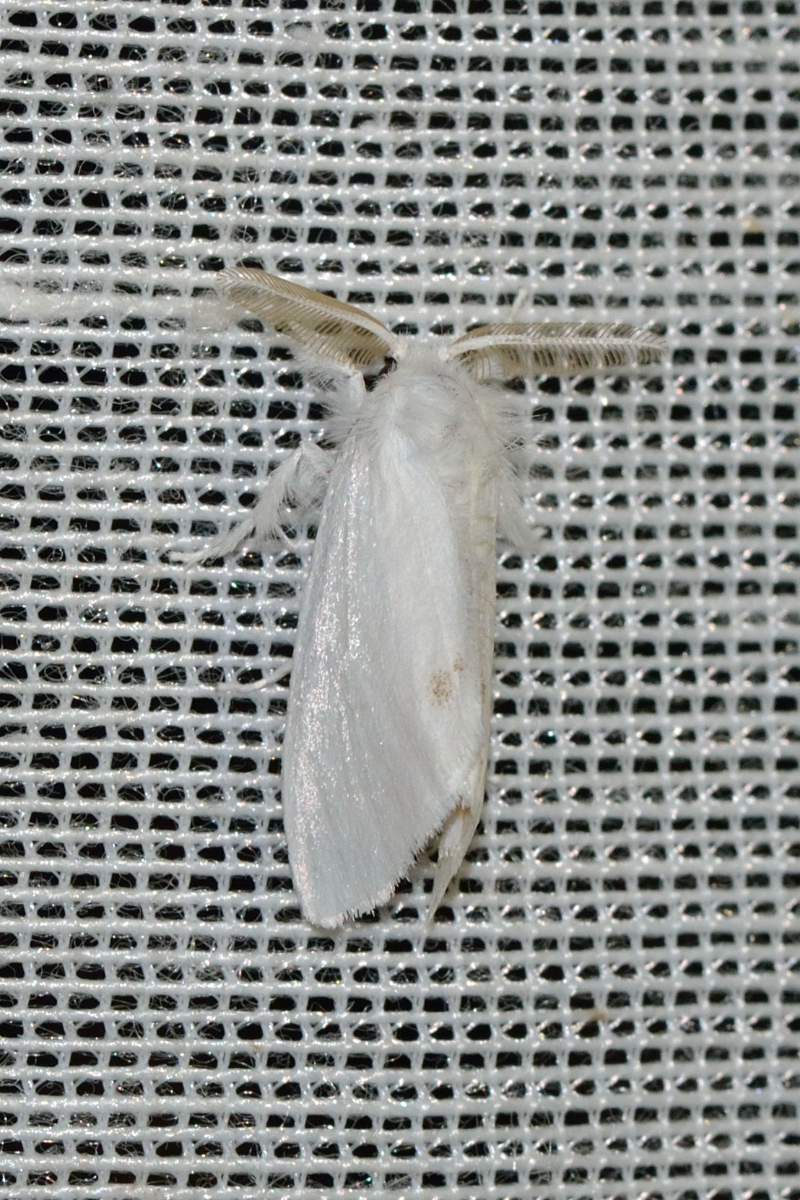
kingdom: Animalia
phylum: Arthropoda
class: Insecta
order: Lepidoptera
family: Erebidae
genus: Sphrageidus
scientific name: Sphrageidus similis
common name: Yellow-tail
